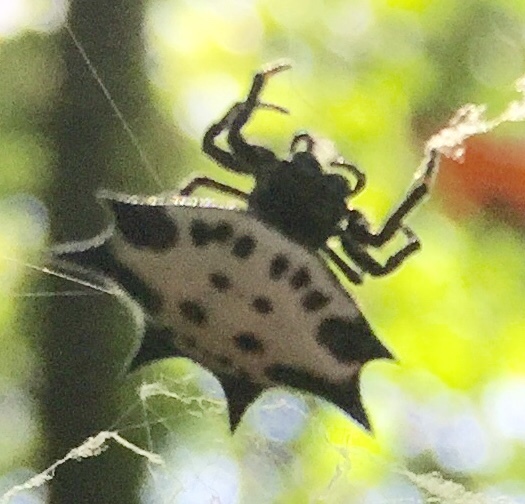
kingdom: Animalia
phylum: Arthropoda
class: Arachnida
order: Araneae
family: Araneidae
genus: Gasteracantha
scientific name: Gasteracantha cancriformis
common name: Orb weavers
